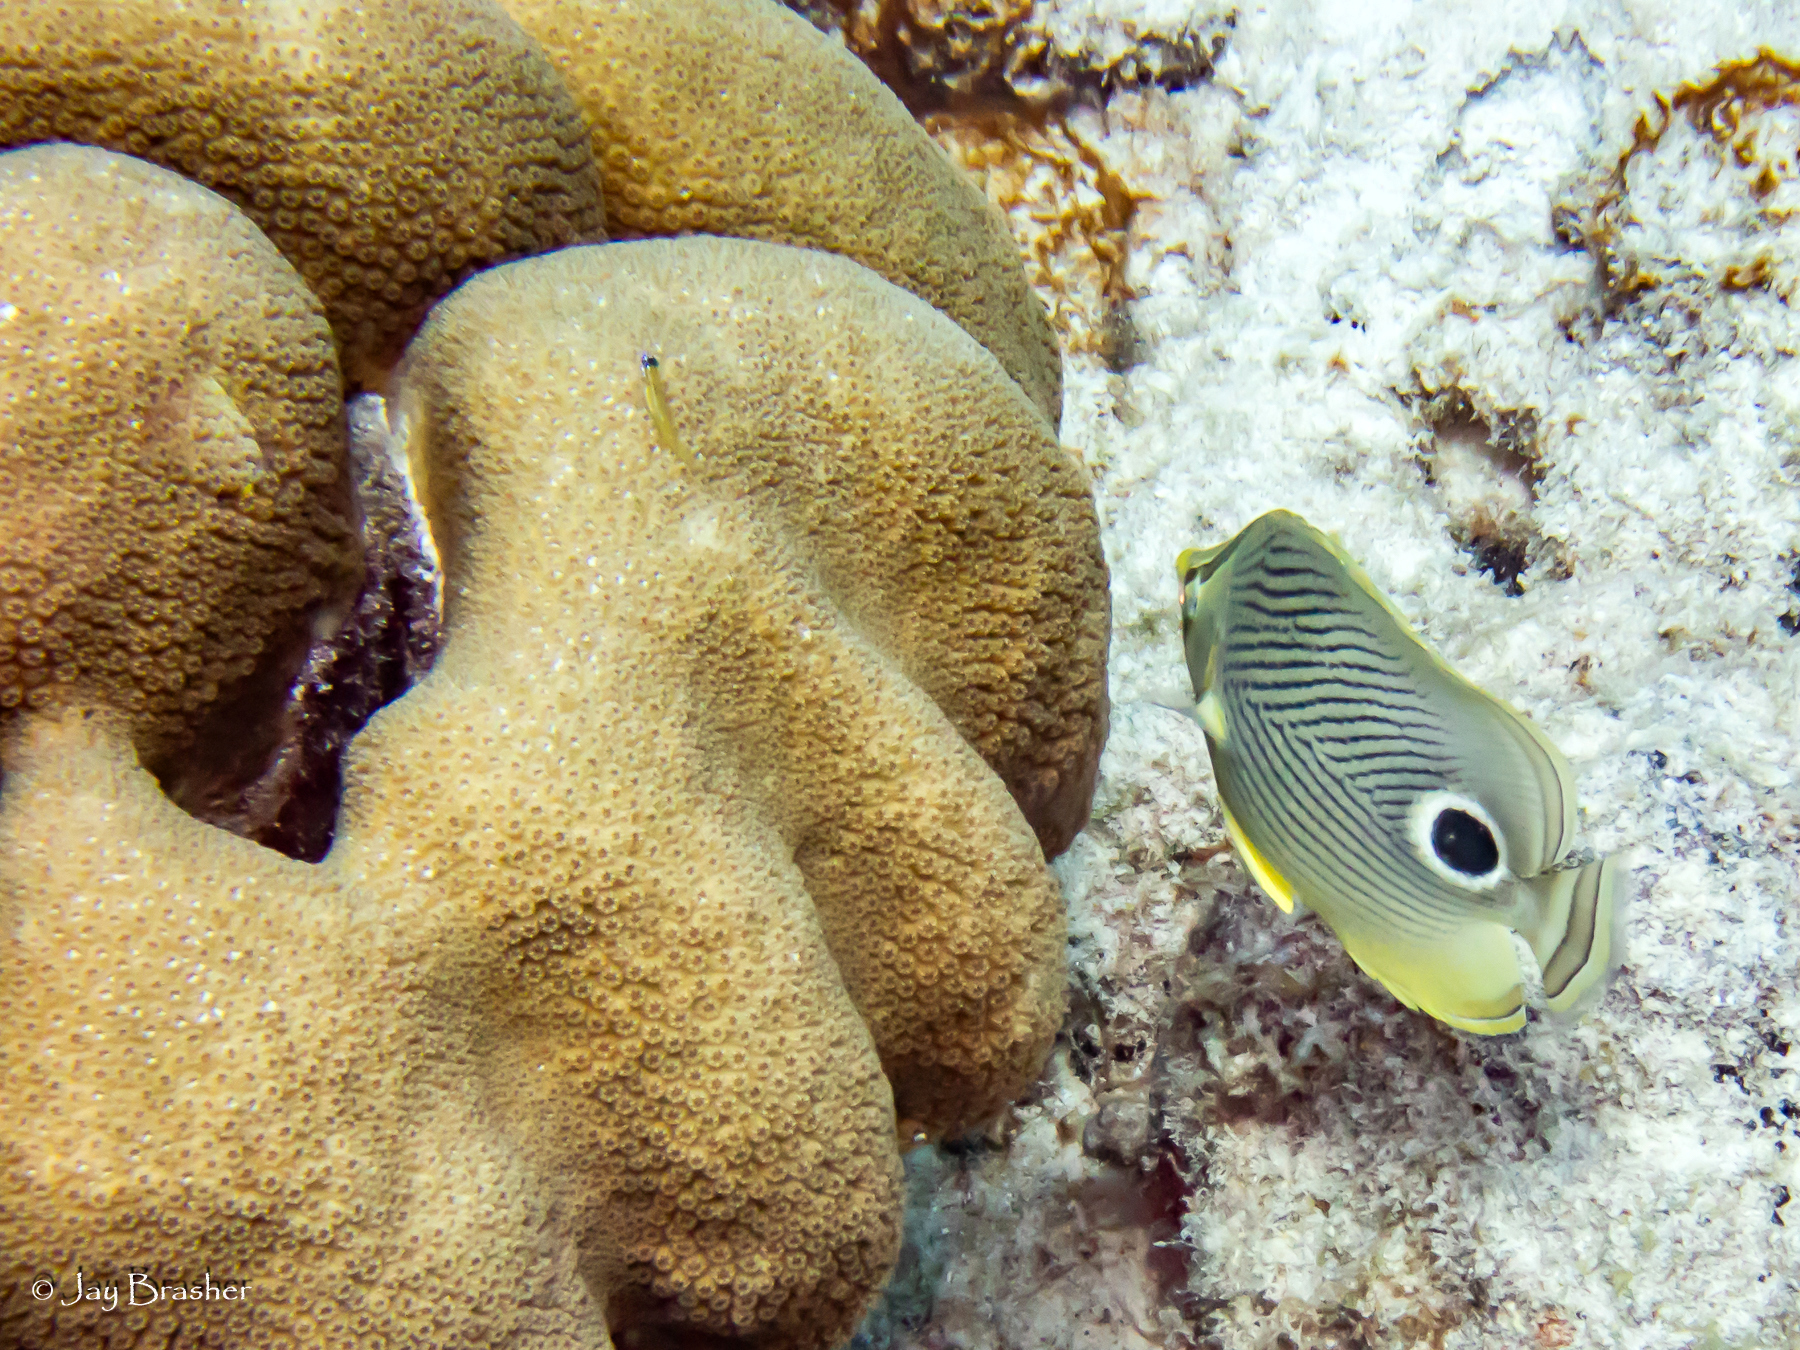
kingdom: Animalia
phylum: Chordata
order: Perciformes
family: Gobiidae
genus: Coryphopterus
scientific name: Coryphopterus lipernes
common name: Peppermint goby
